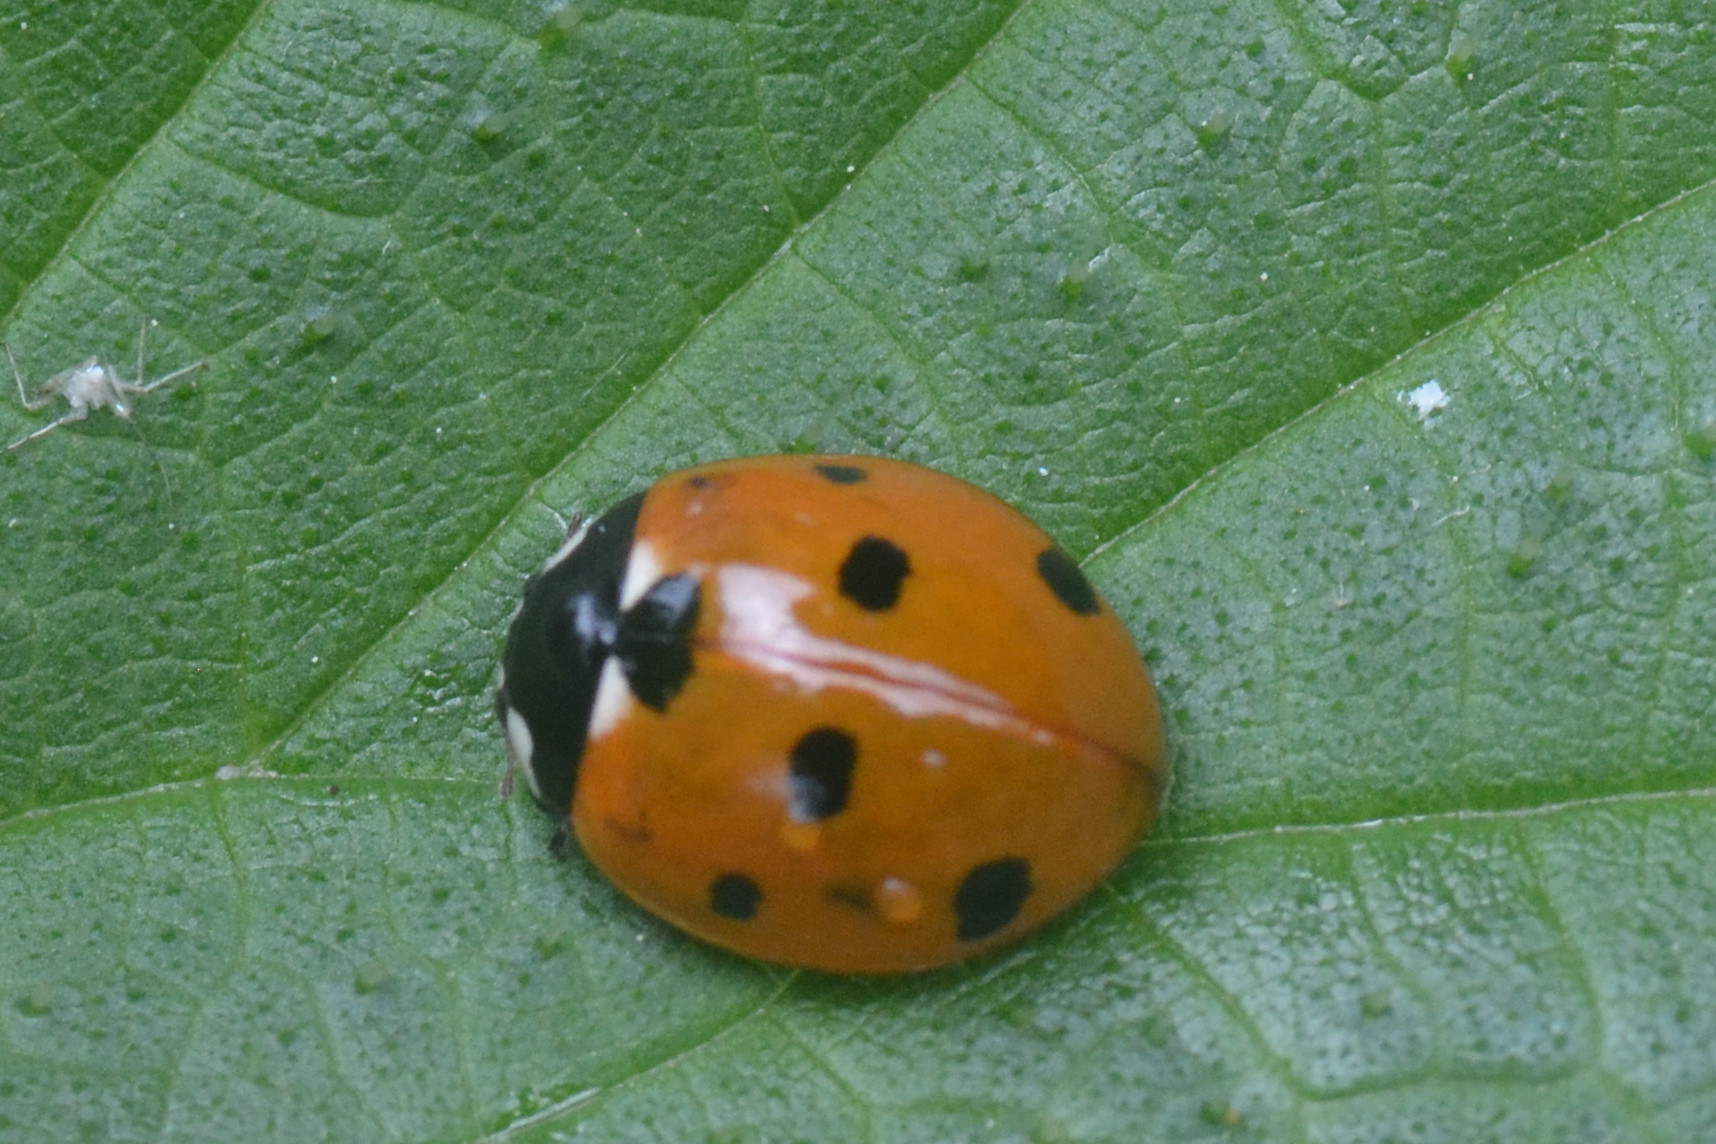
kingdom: Animalia
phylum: Arthropoda
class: Insecta
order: Coleoptera
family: Coccinellidae
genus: Coccinella
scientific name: Coccinella septempunctata
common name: Sevenspotted lady beetle
